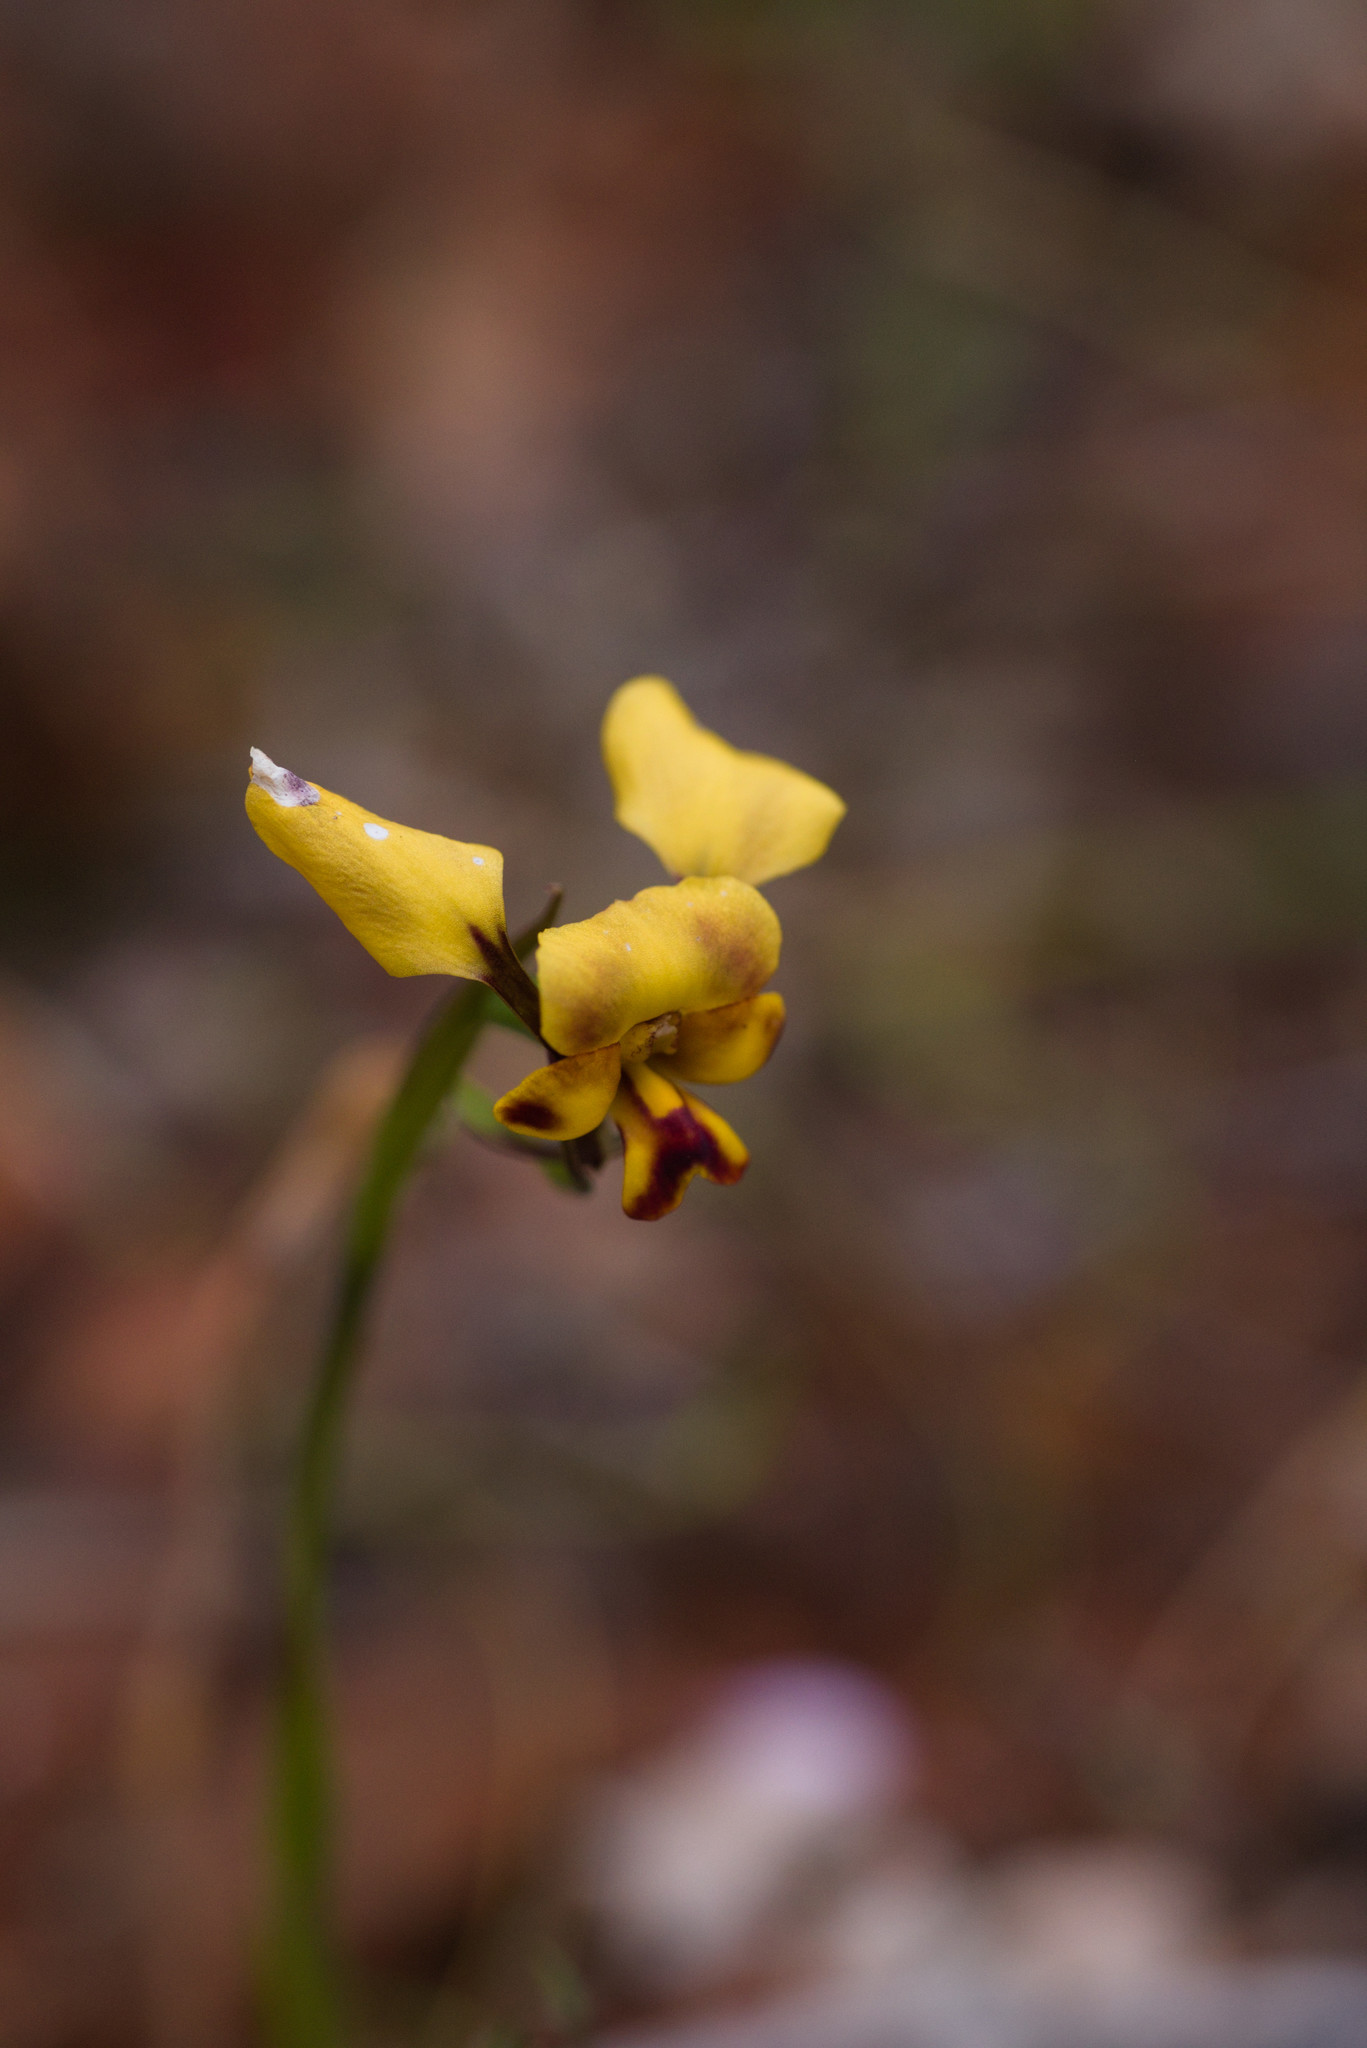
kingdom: Plantae
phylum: Tracheophyta
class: Liliopsida
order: Asparagales
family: Orchidaceae
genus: Diuris
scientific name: Diuris suffusa
